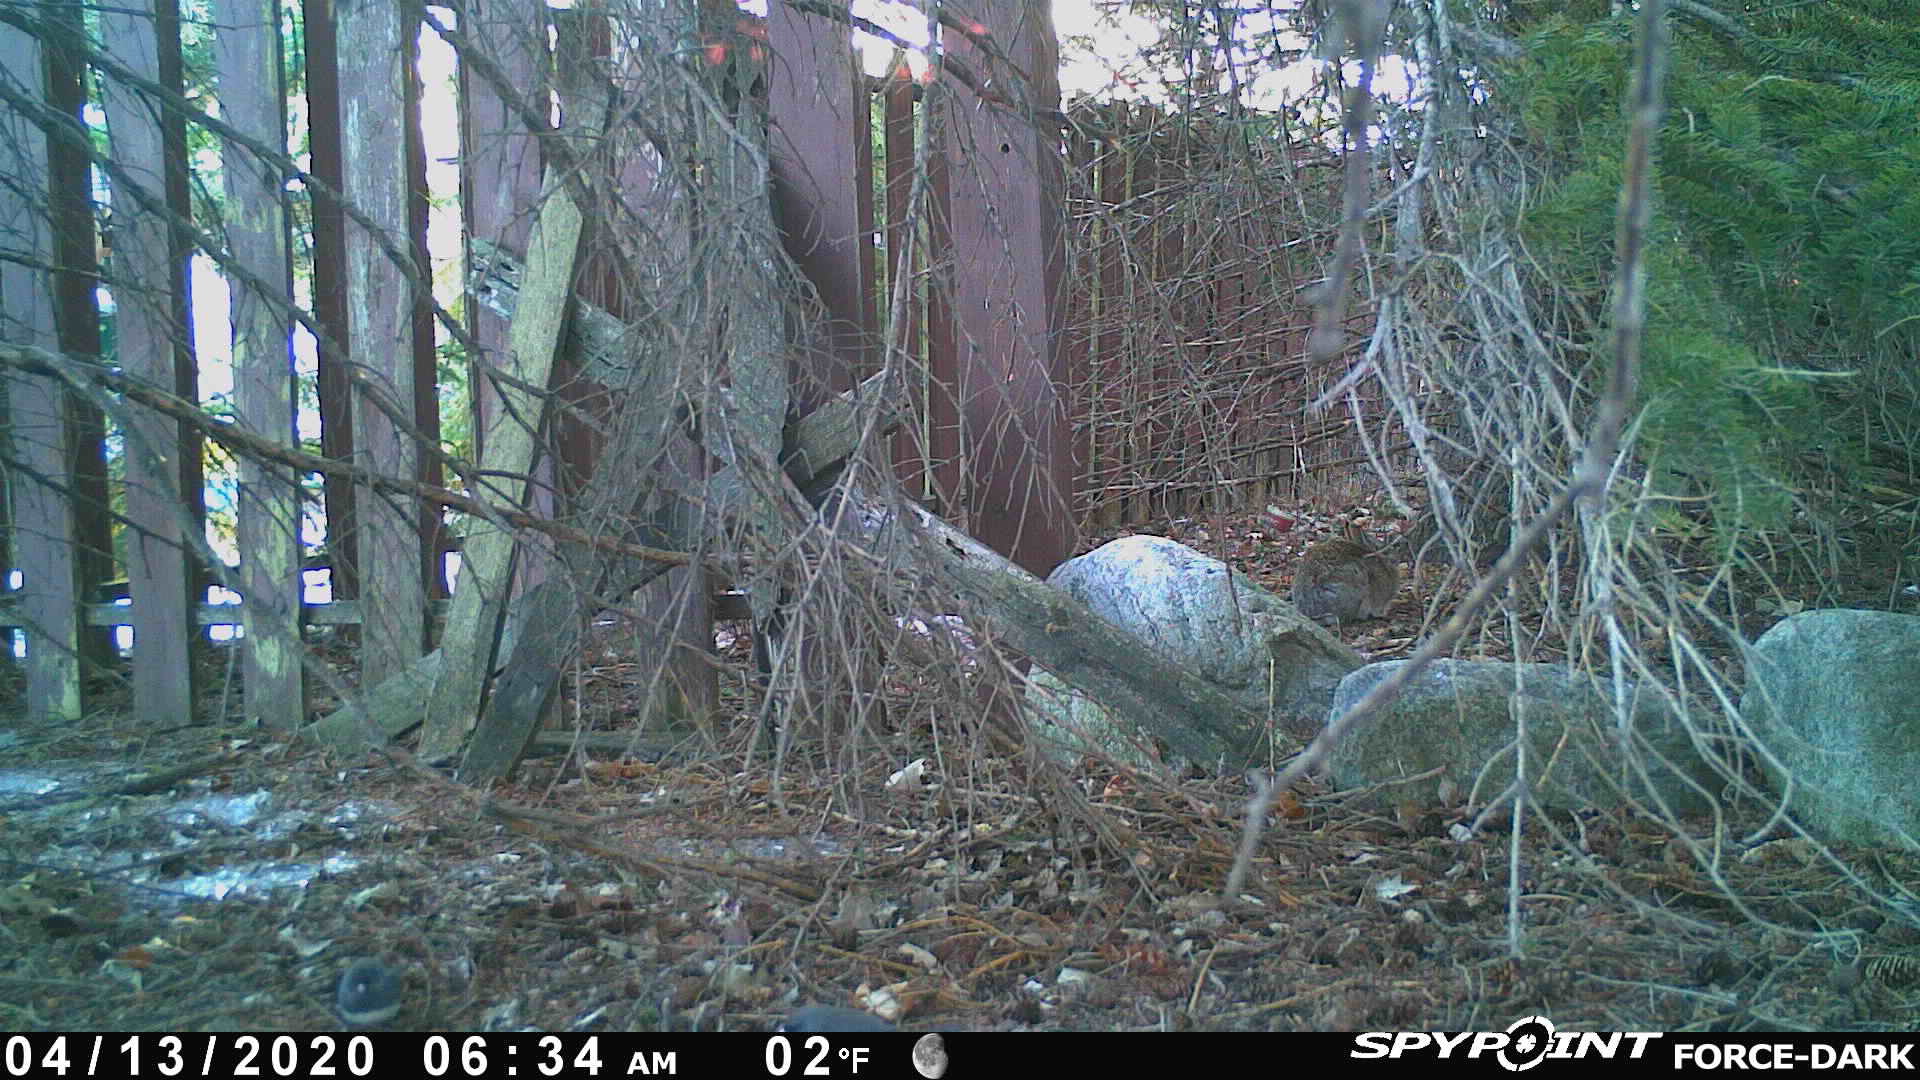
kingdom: Animalia
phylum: Chordata
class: Mammalia
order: Lagomorpha
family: Leporidae
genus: Sylvilagus
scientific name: Sylvilagus floridanus
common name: Eastern cottontail
